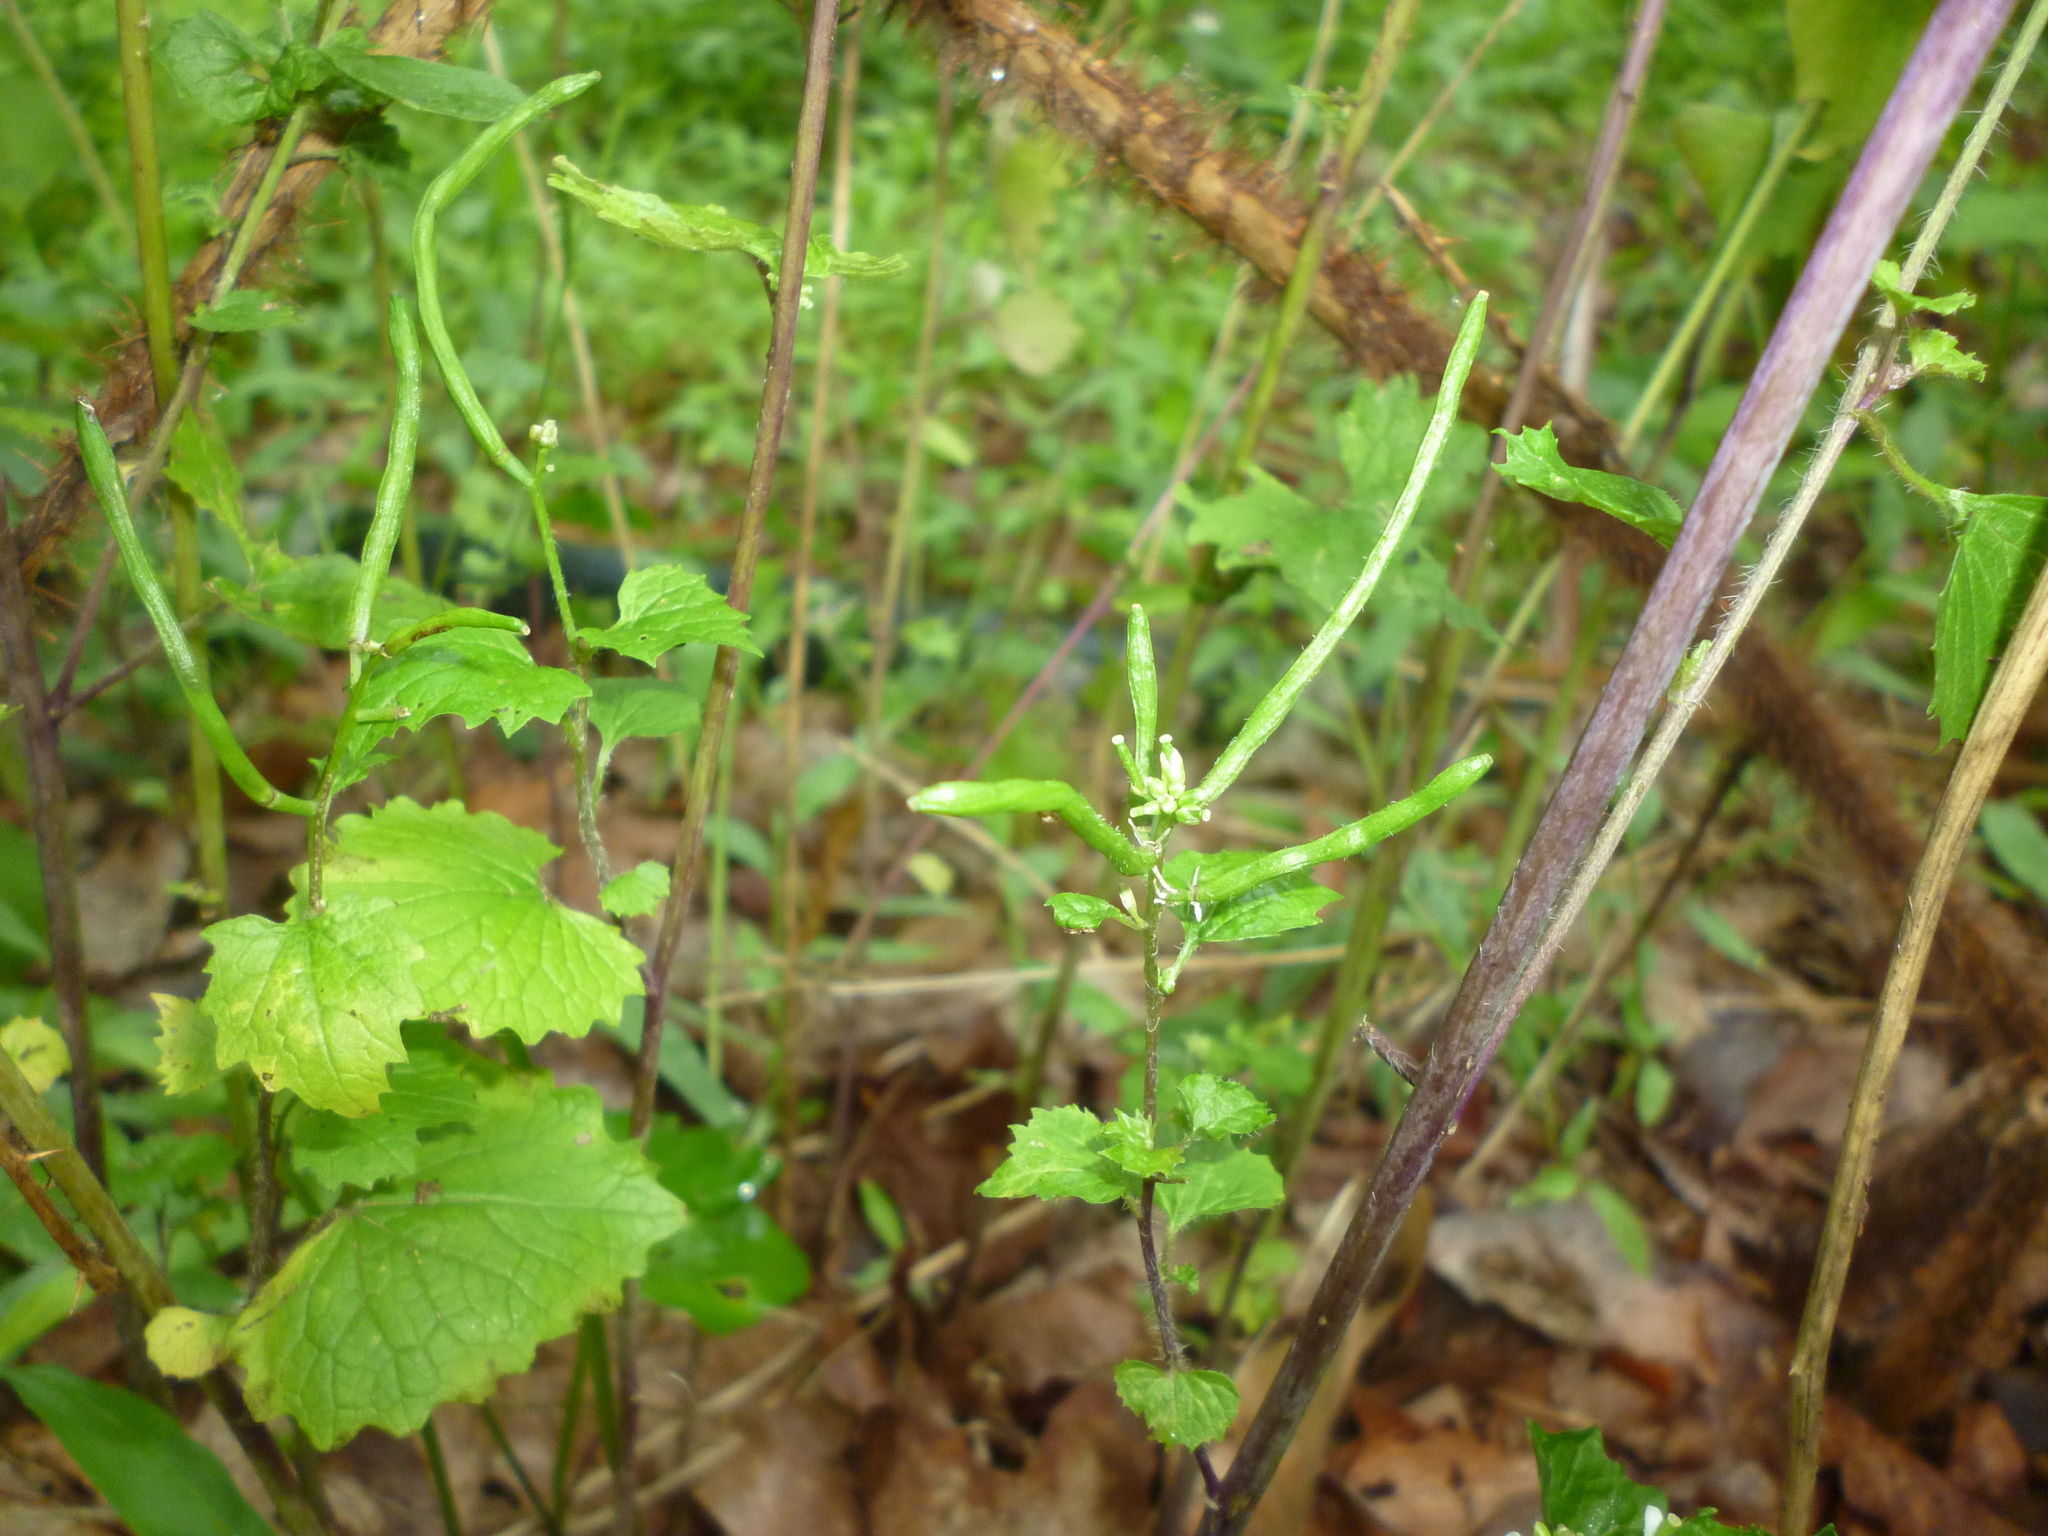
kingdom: Plantae
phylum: Tracheophyta
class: Magnoliopsida
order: Brassicales
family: Brassicaceae
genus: Alliaria
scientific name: Alliaria petiolata
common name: Garlic mustard
